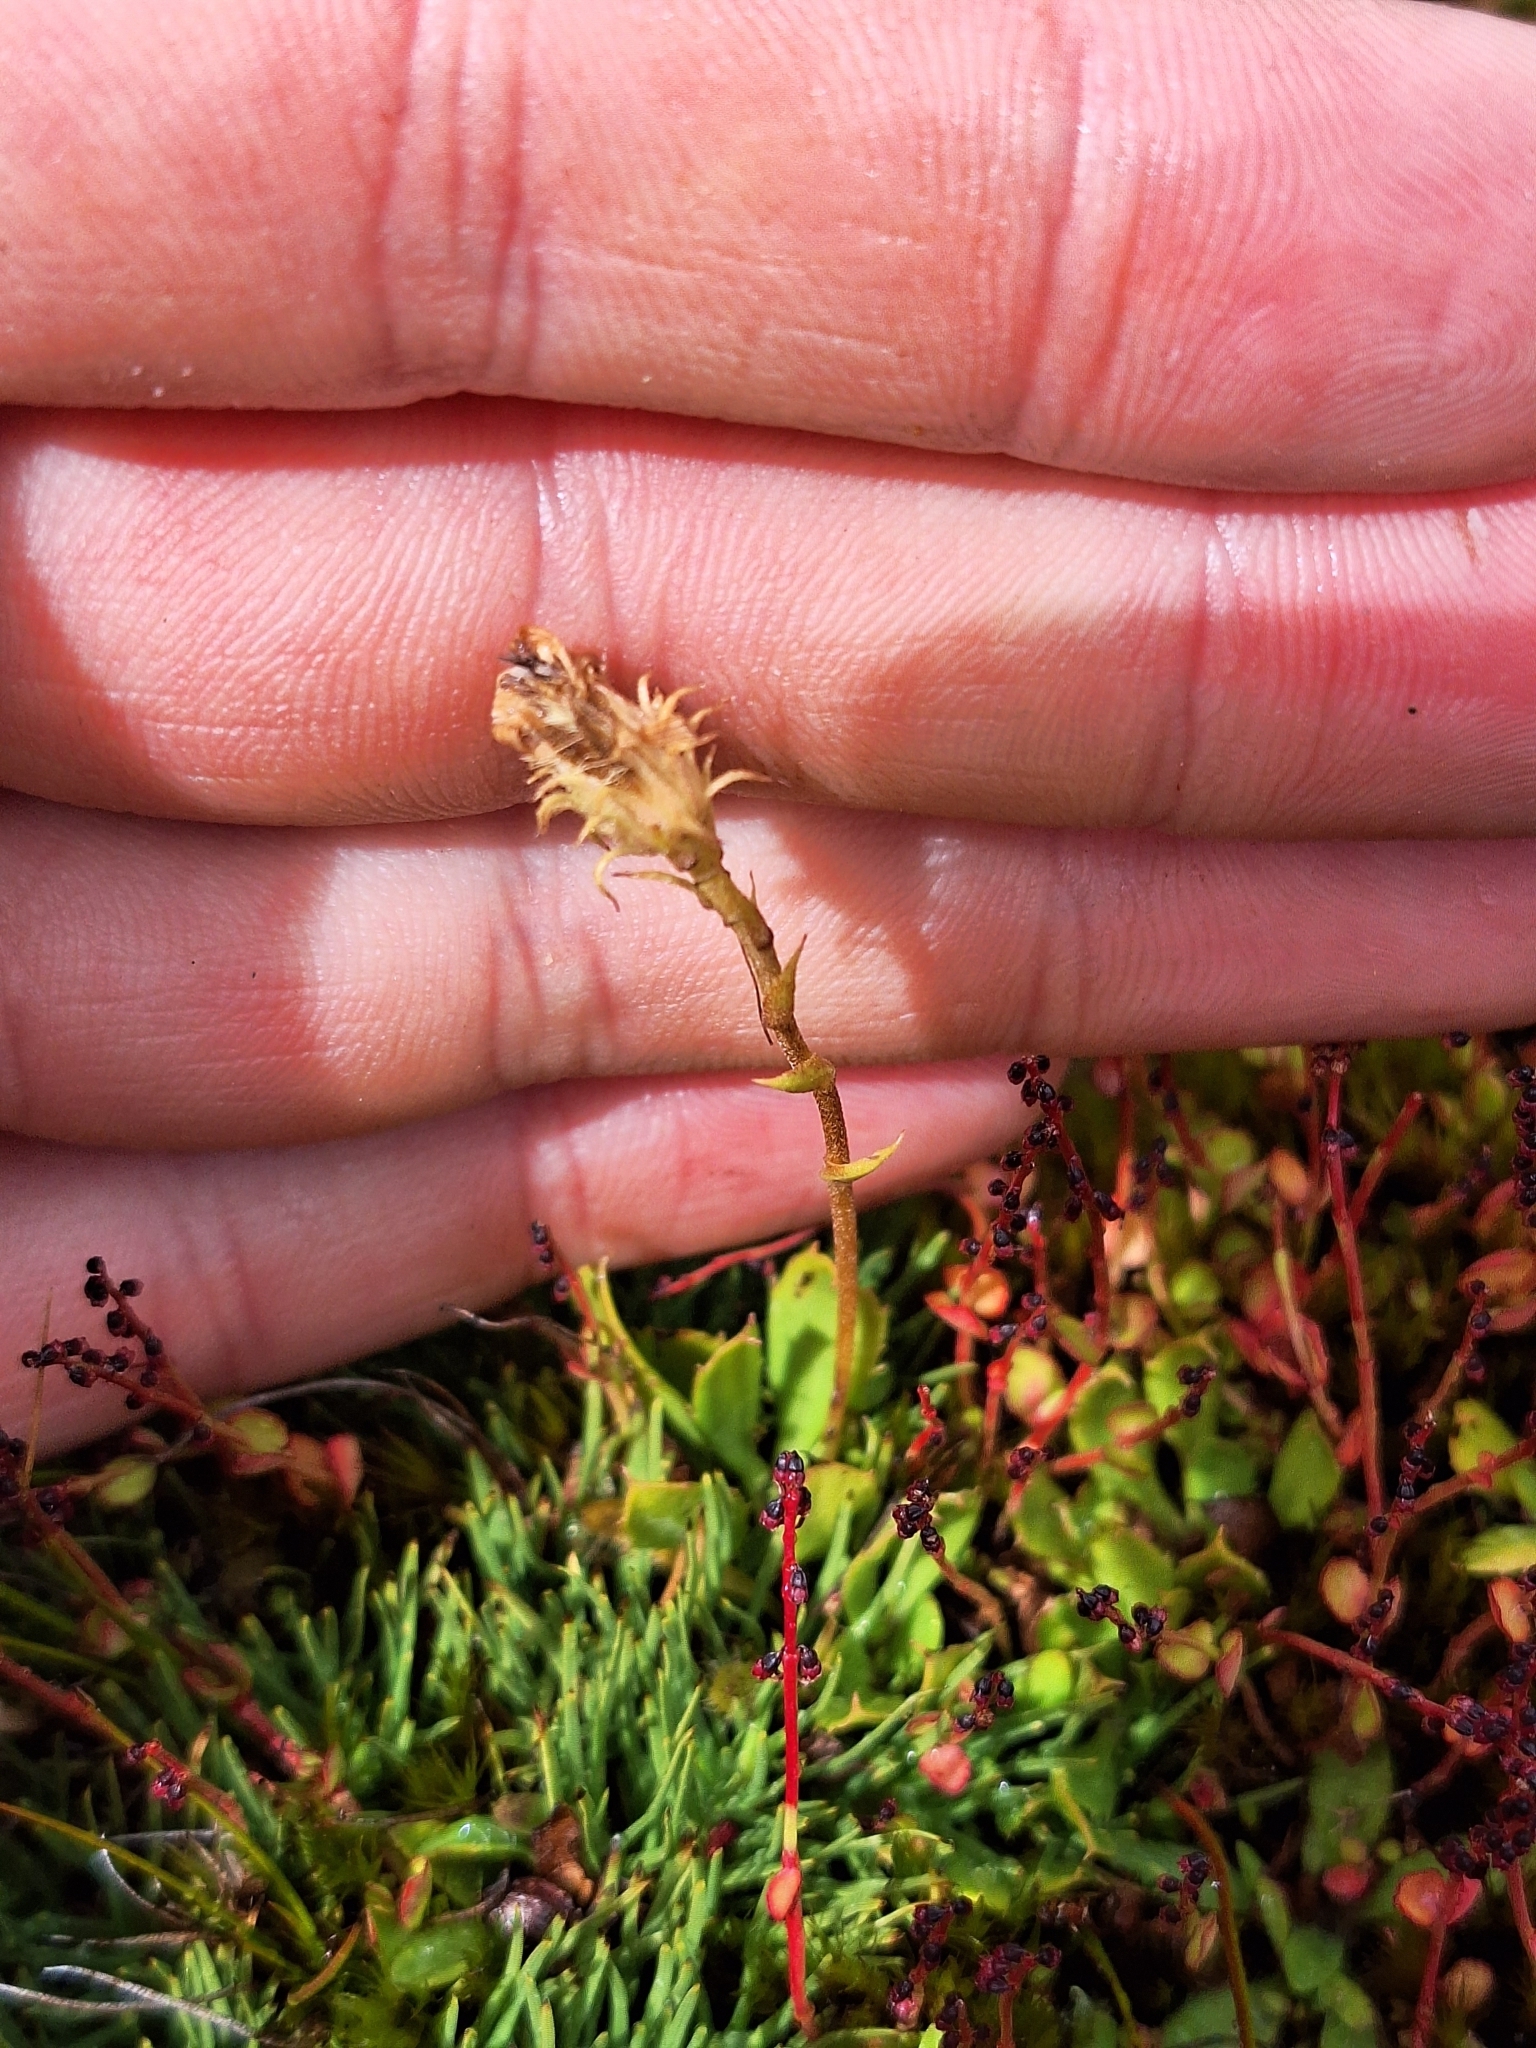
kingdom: Plantae
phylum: Tracheophyta
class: Magnoliopsida
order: Asterales
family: Asteraceae
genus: Celmisia
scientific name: Celmisia glandulosa
